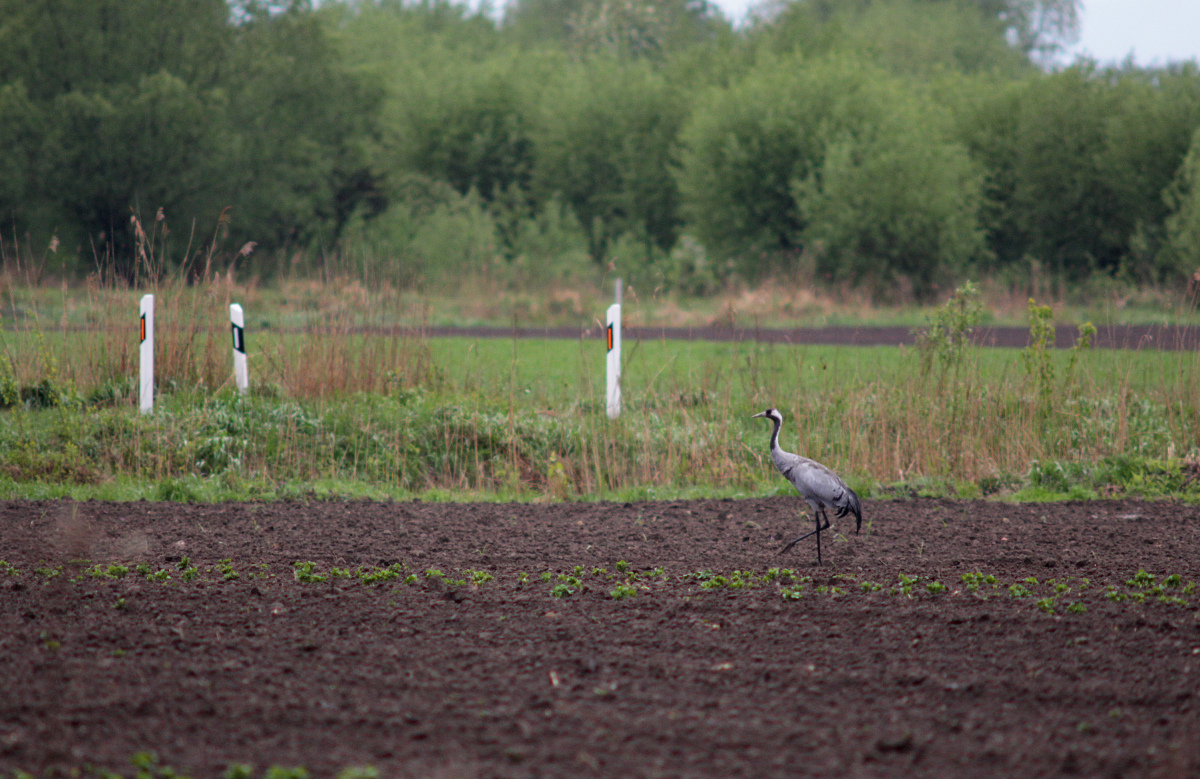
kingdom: Animalia
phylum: Chordata
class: Aves
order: Gruiformes
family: Gruidae
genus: Grus
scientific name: Grus grus
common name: Common crane
